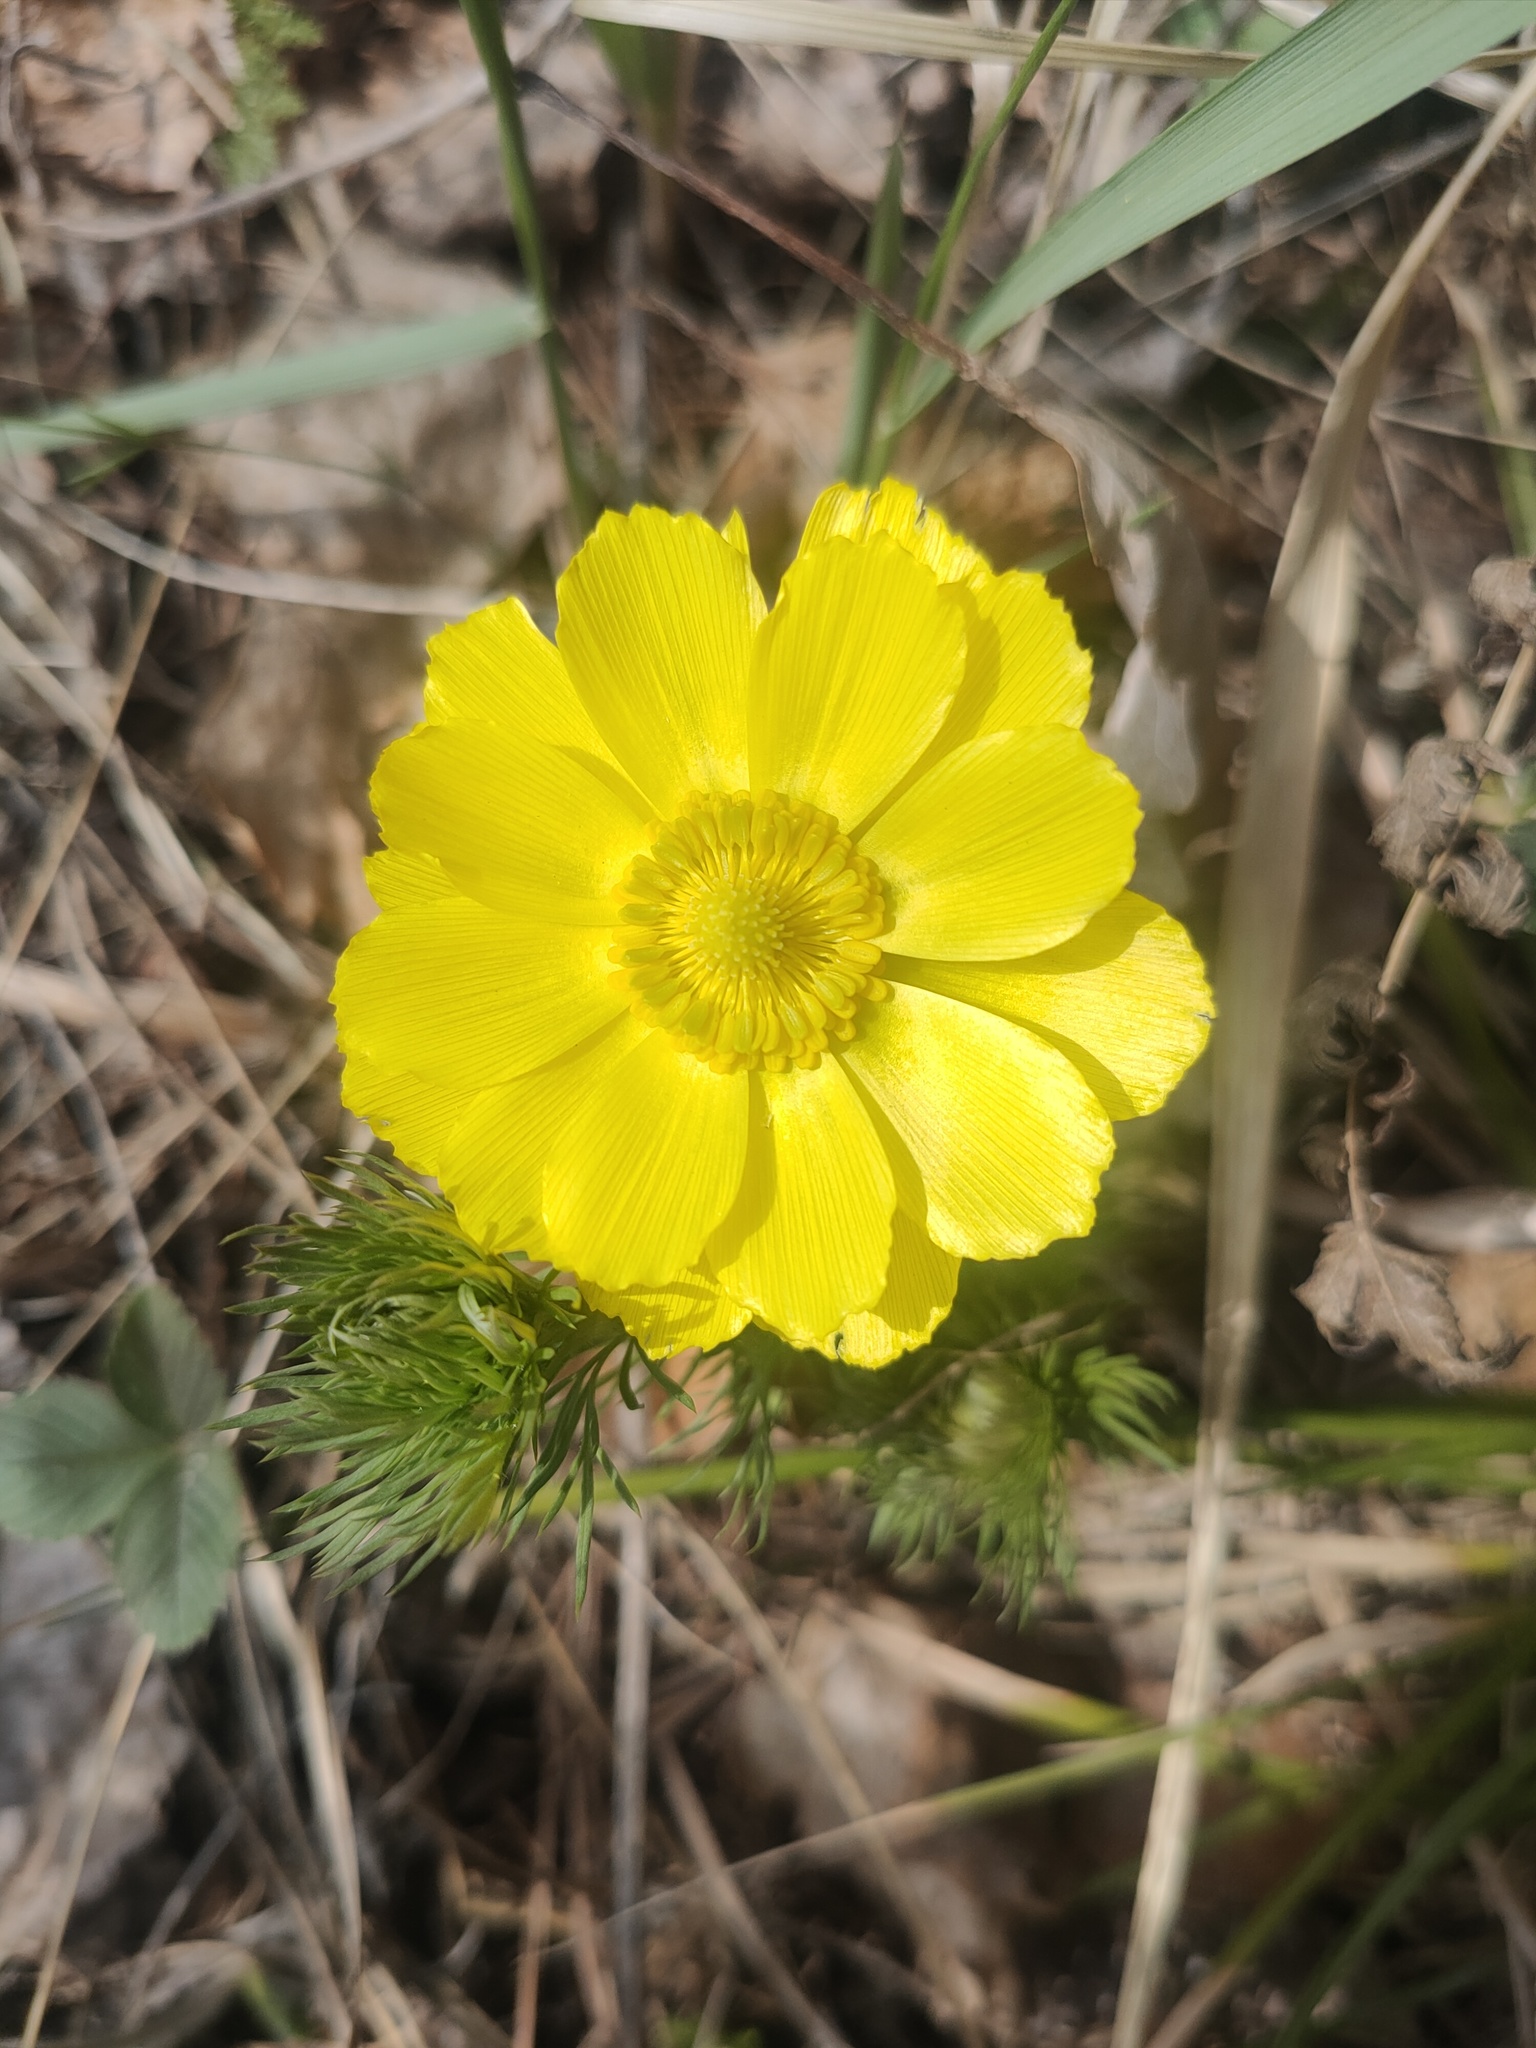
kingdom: Plantae
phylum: Tracheophyta
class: Magnoliopsida
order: Ranunculales
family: Ranunculaceae
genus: Adonis
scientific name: Adonis vernalis
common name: Yellow pheasants-eye
